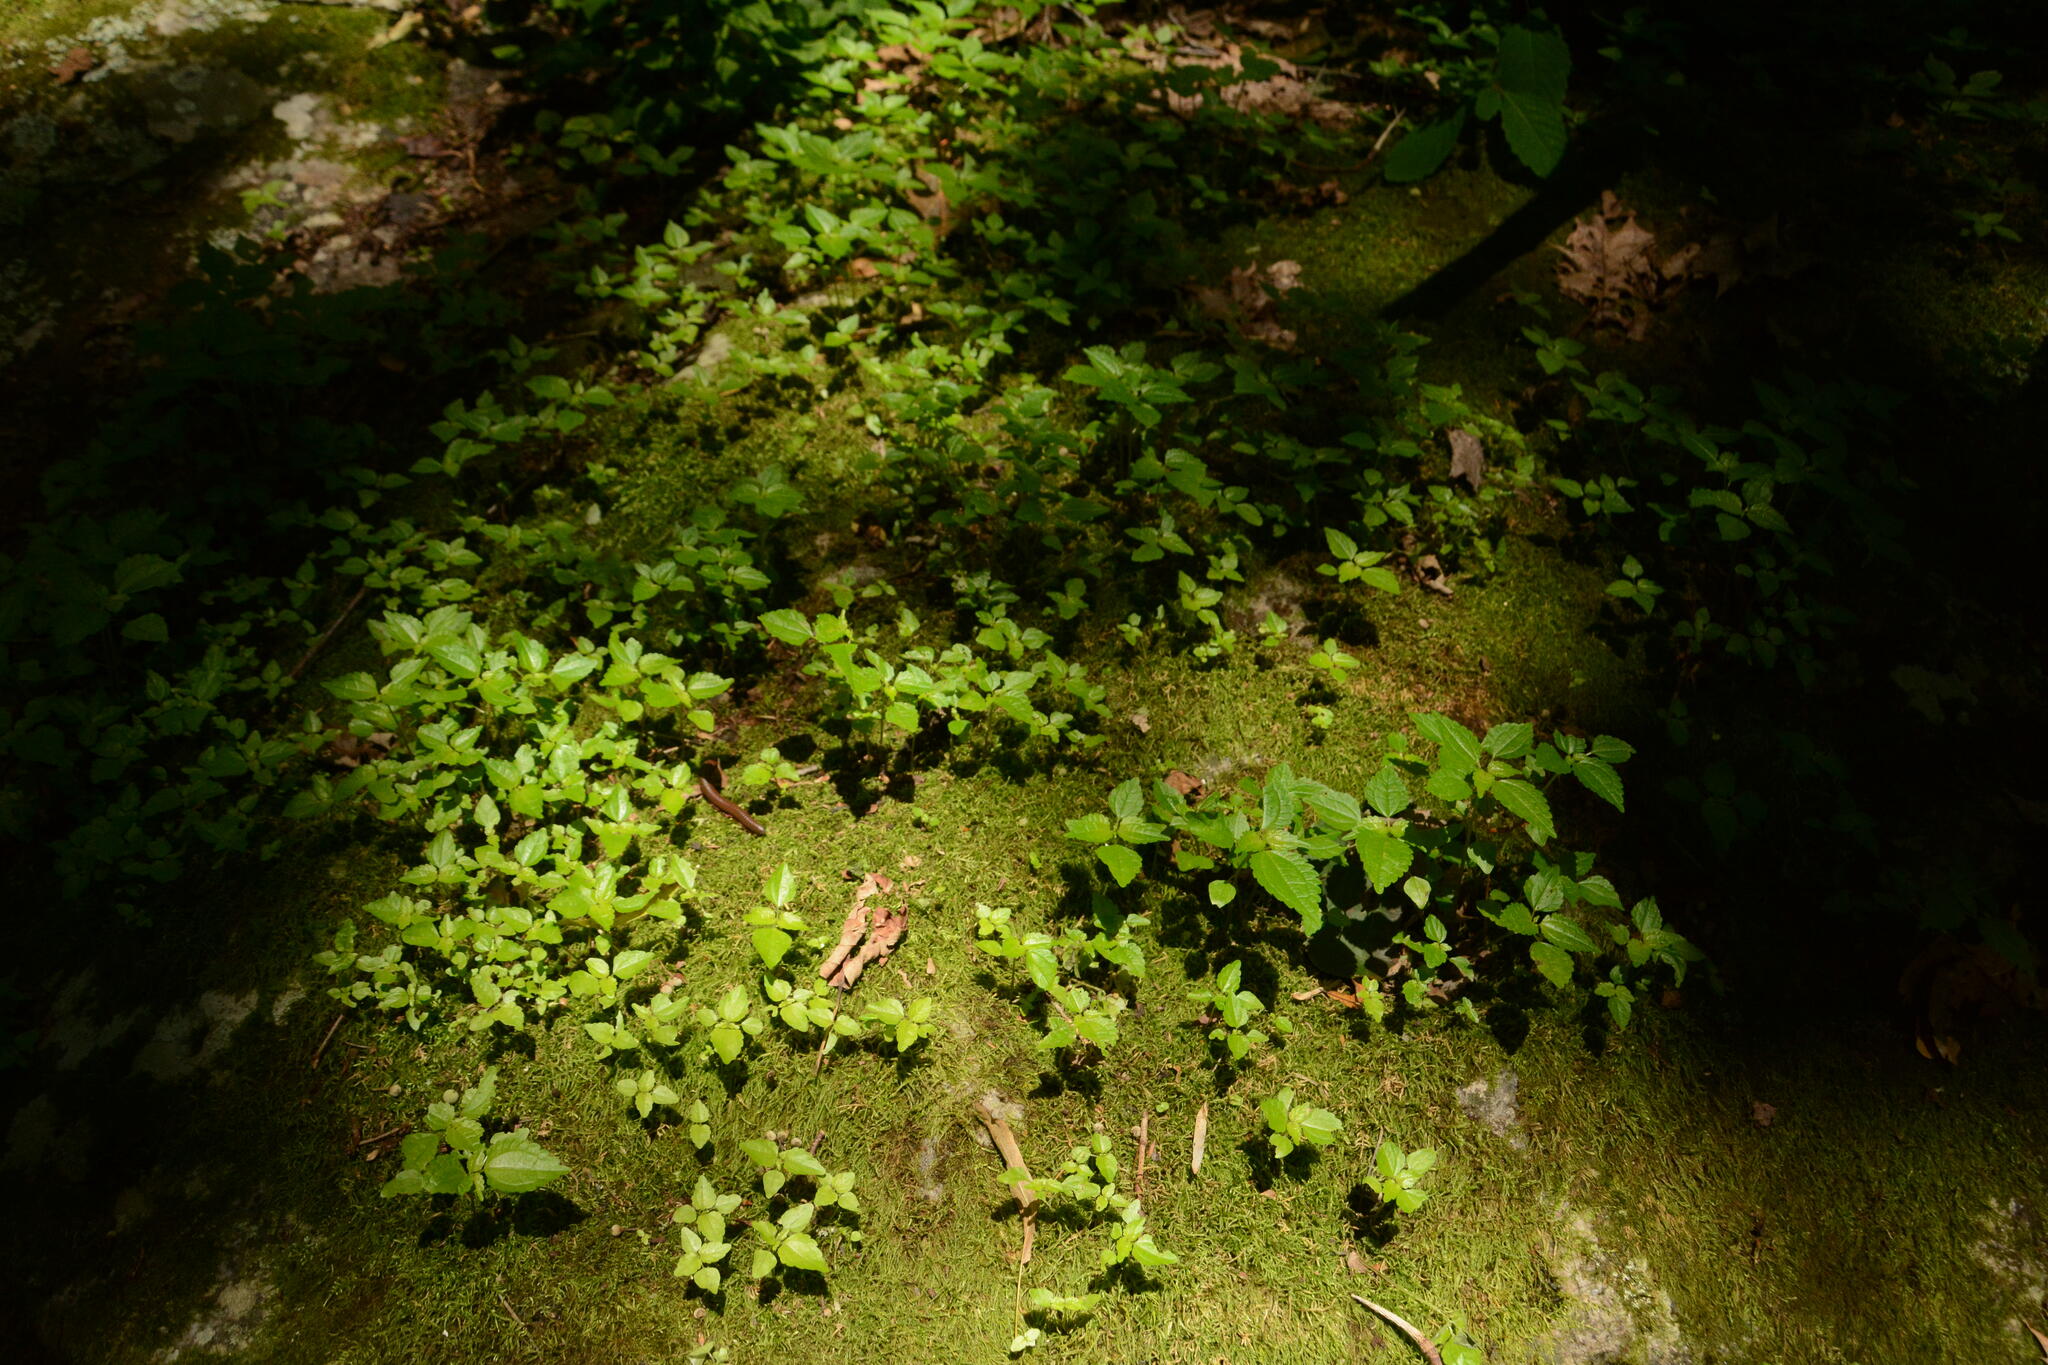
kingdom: Plantae
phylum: Tracheophyta
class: Magnoliopsida
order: Rosales
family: Urticaceae
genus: Pilea
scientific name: Pilea pumila
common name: Clearweed
